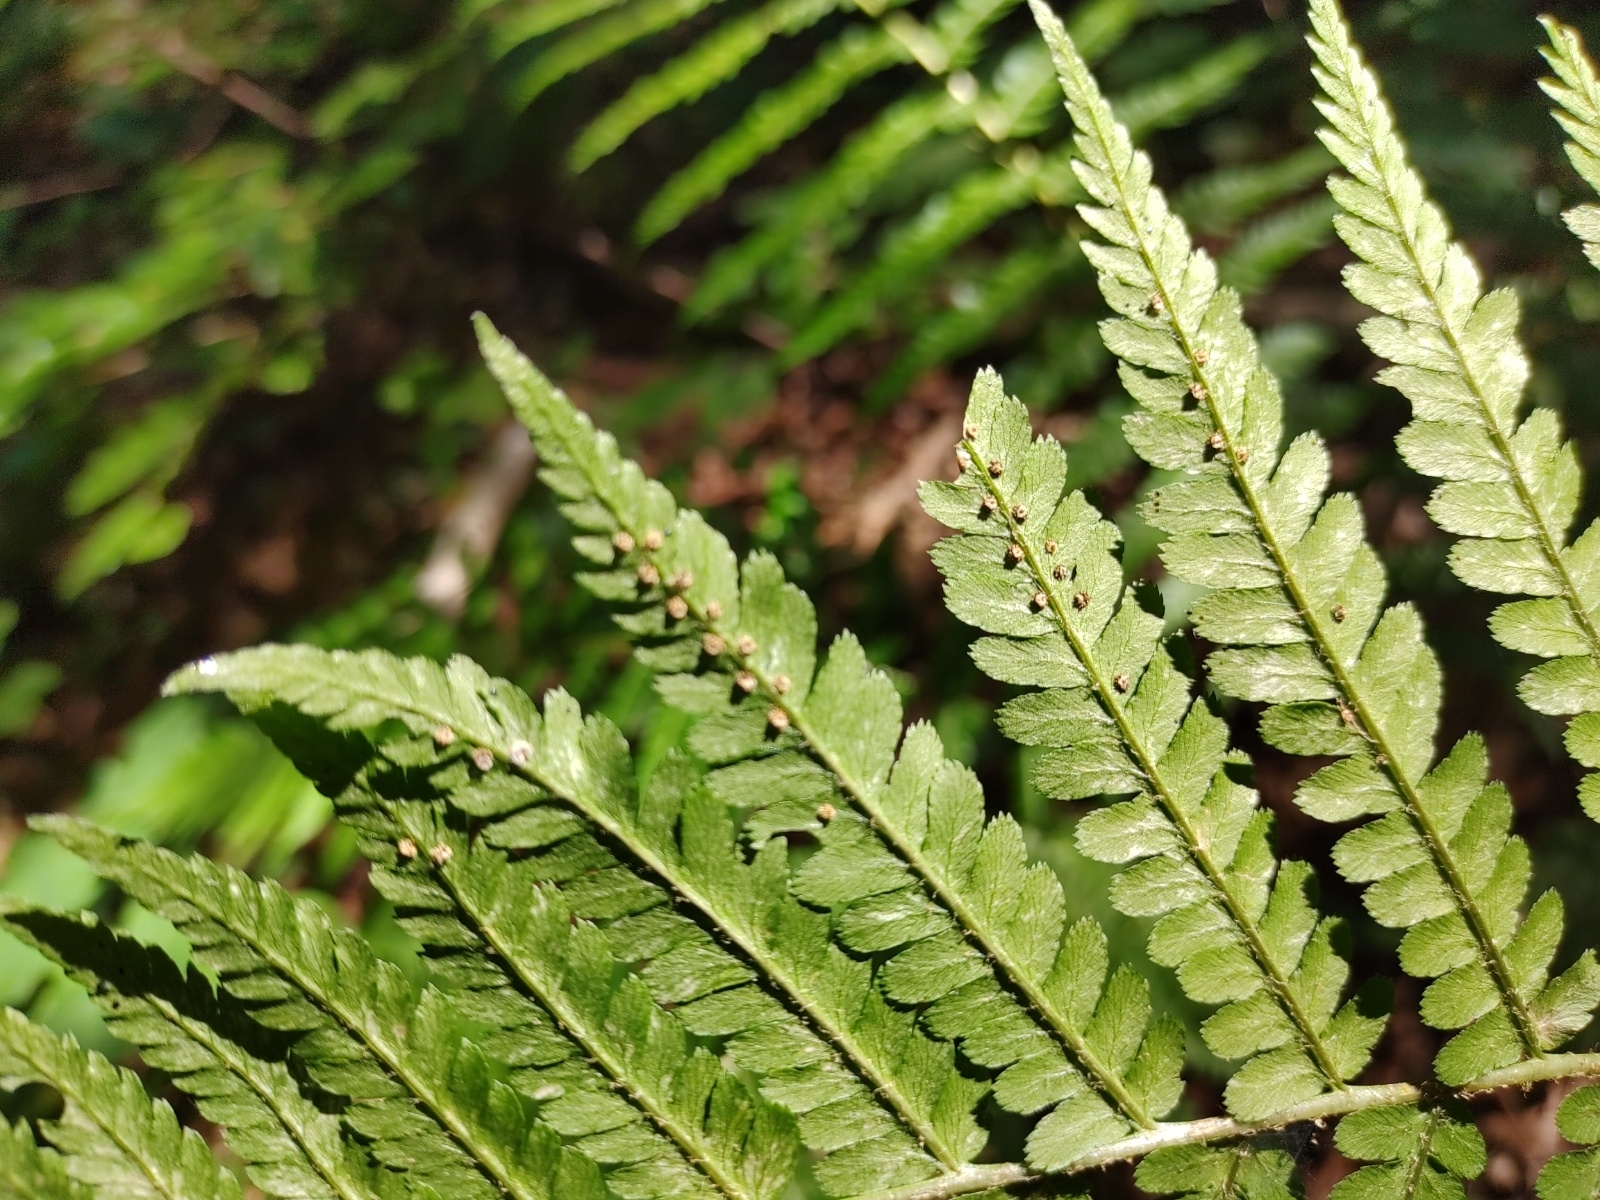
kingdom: Plantae
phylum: Tracheophyta
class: Polypodiopsida
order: Polypodiales
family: Dryopteridaceae
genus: Dryopteris
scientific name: Dryopteris filix-mas
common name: Male fern
